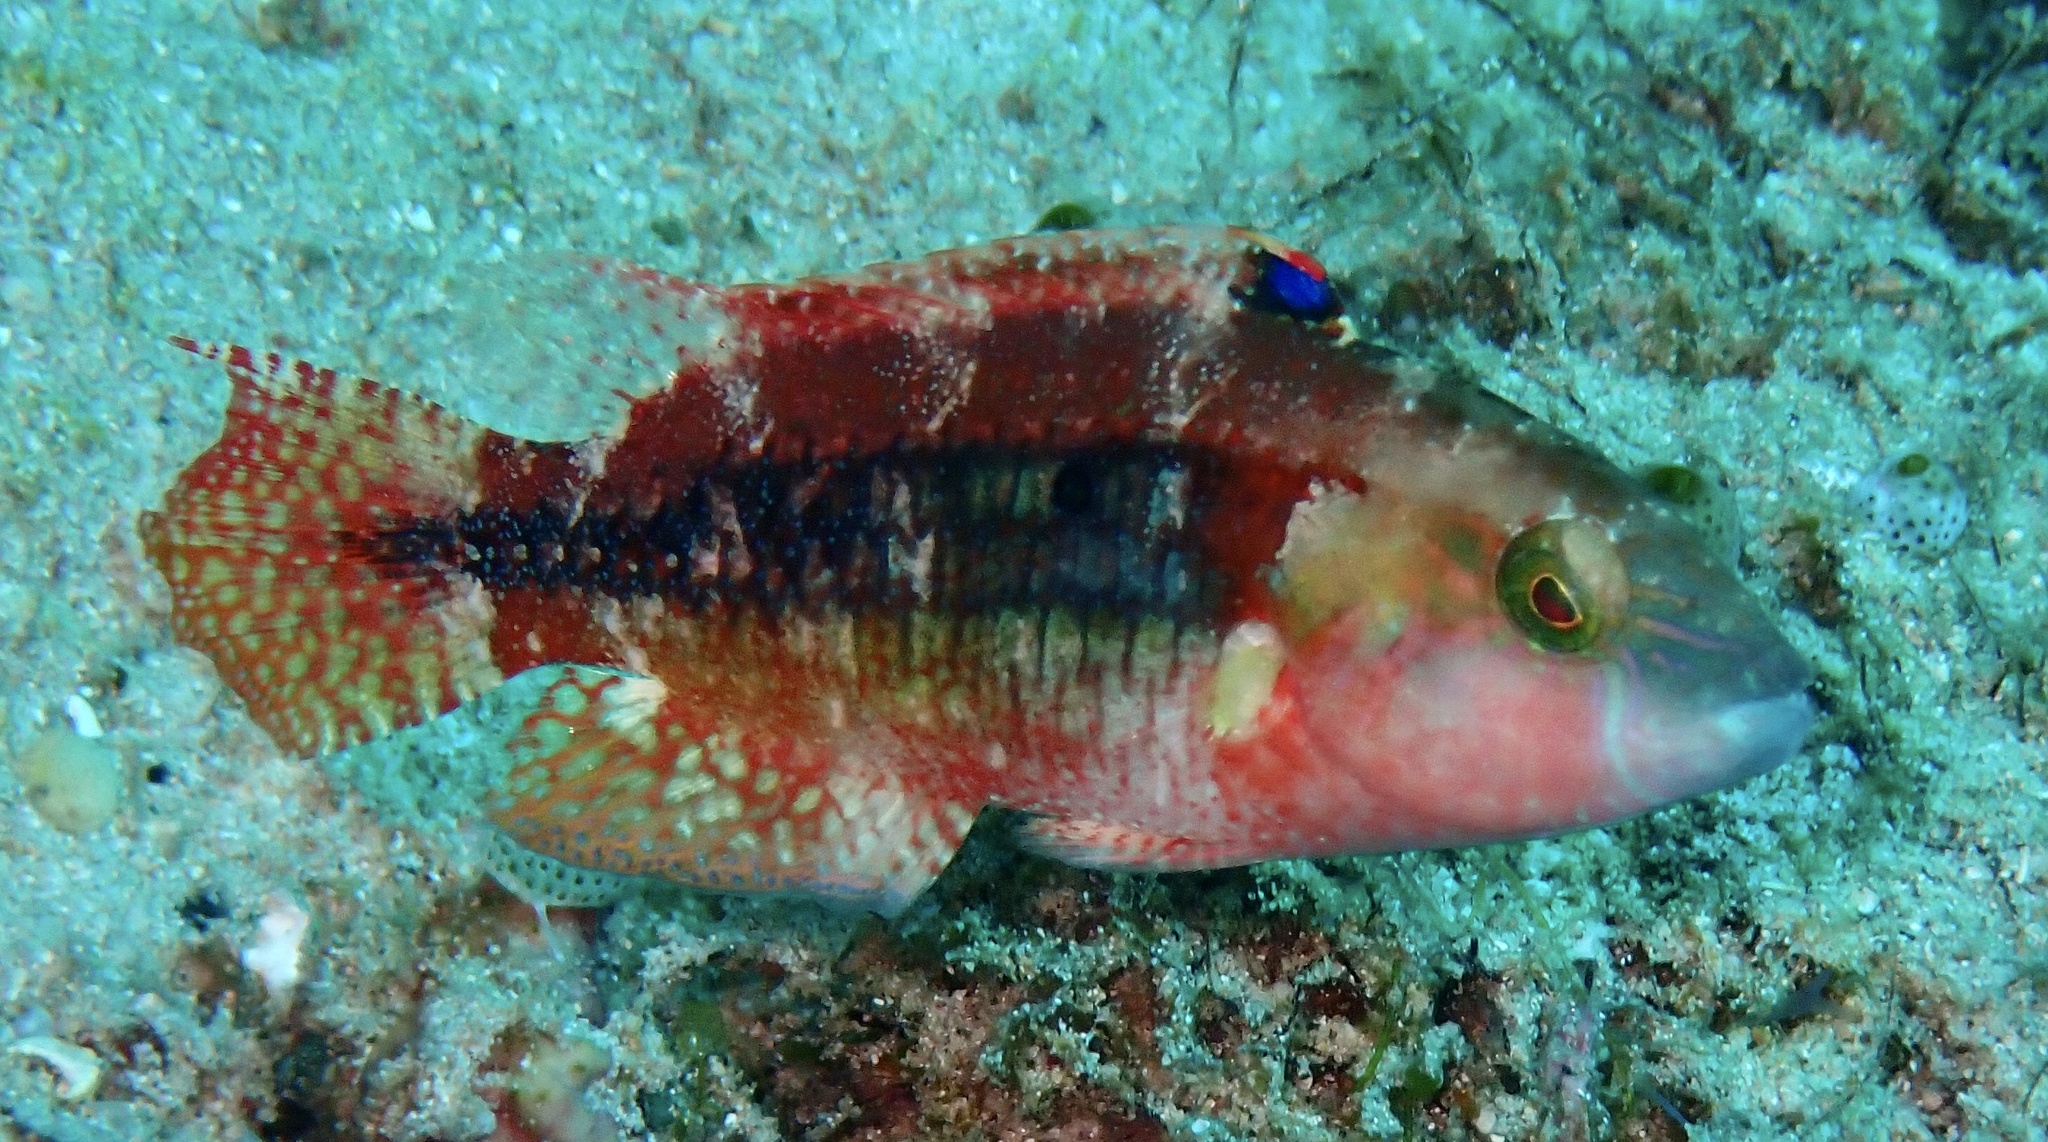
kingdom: Animalia
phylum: Chordata
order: Perciformes
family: Labridae
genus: Oxycheilinus
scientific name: Oxycheilinus bimaculatus
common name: Comettailed wrasse
